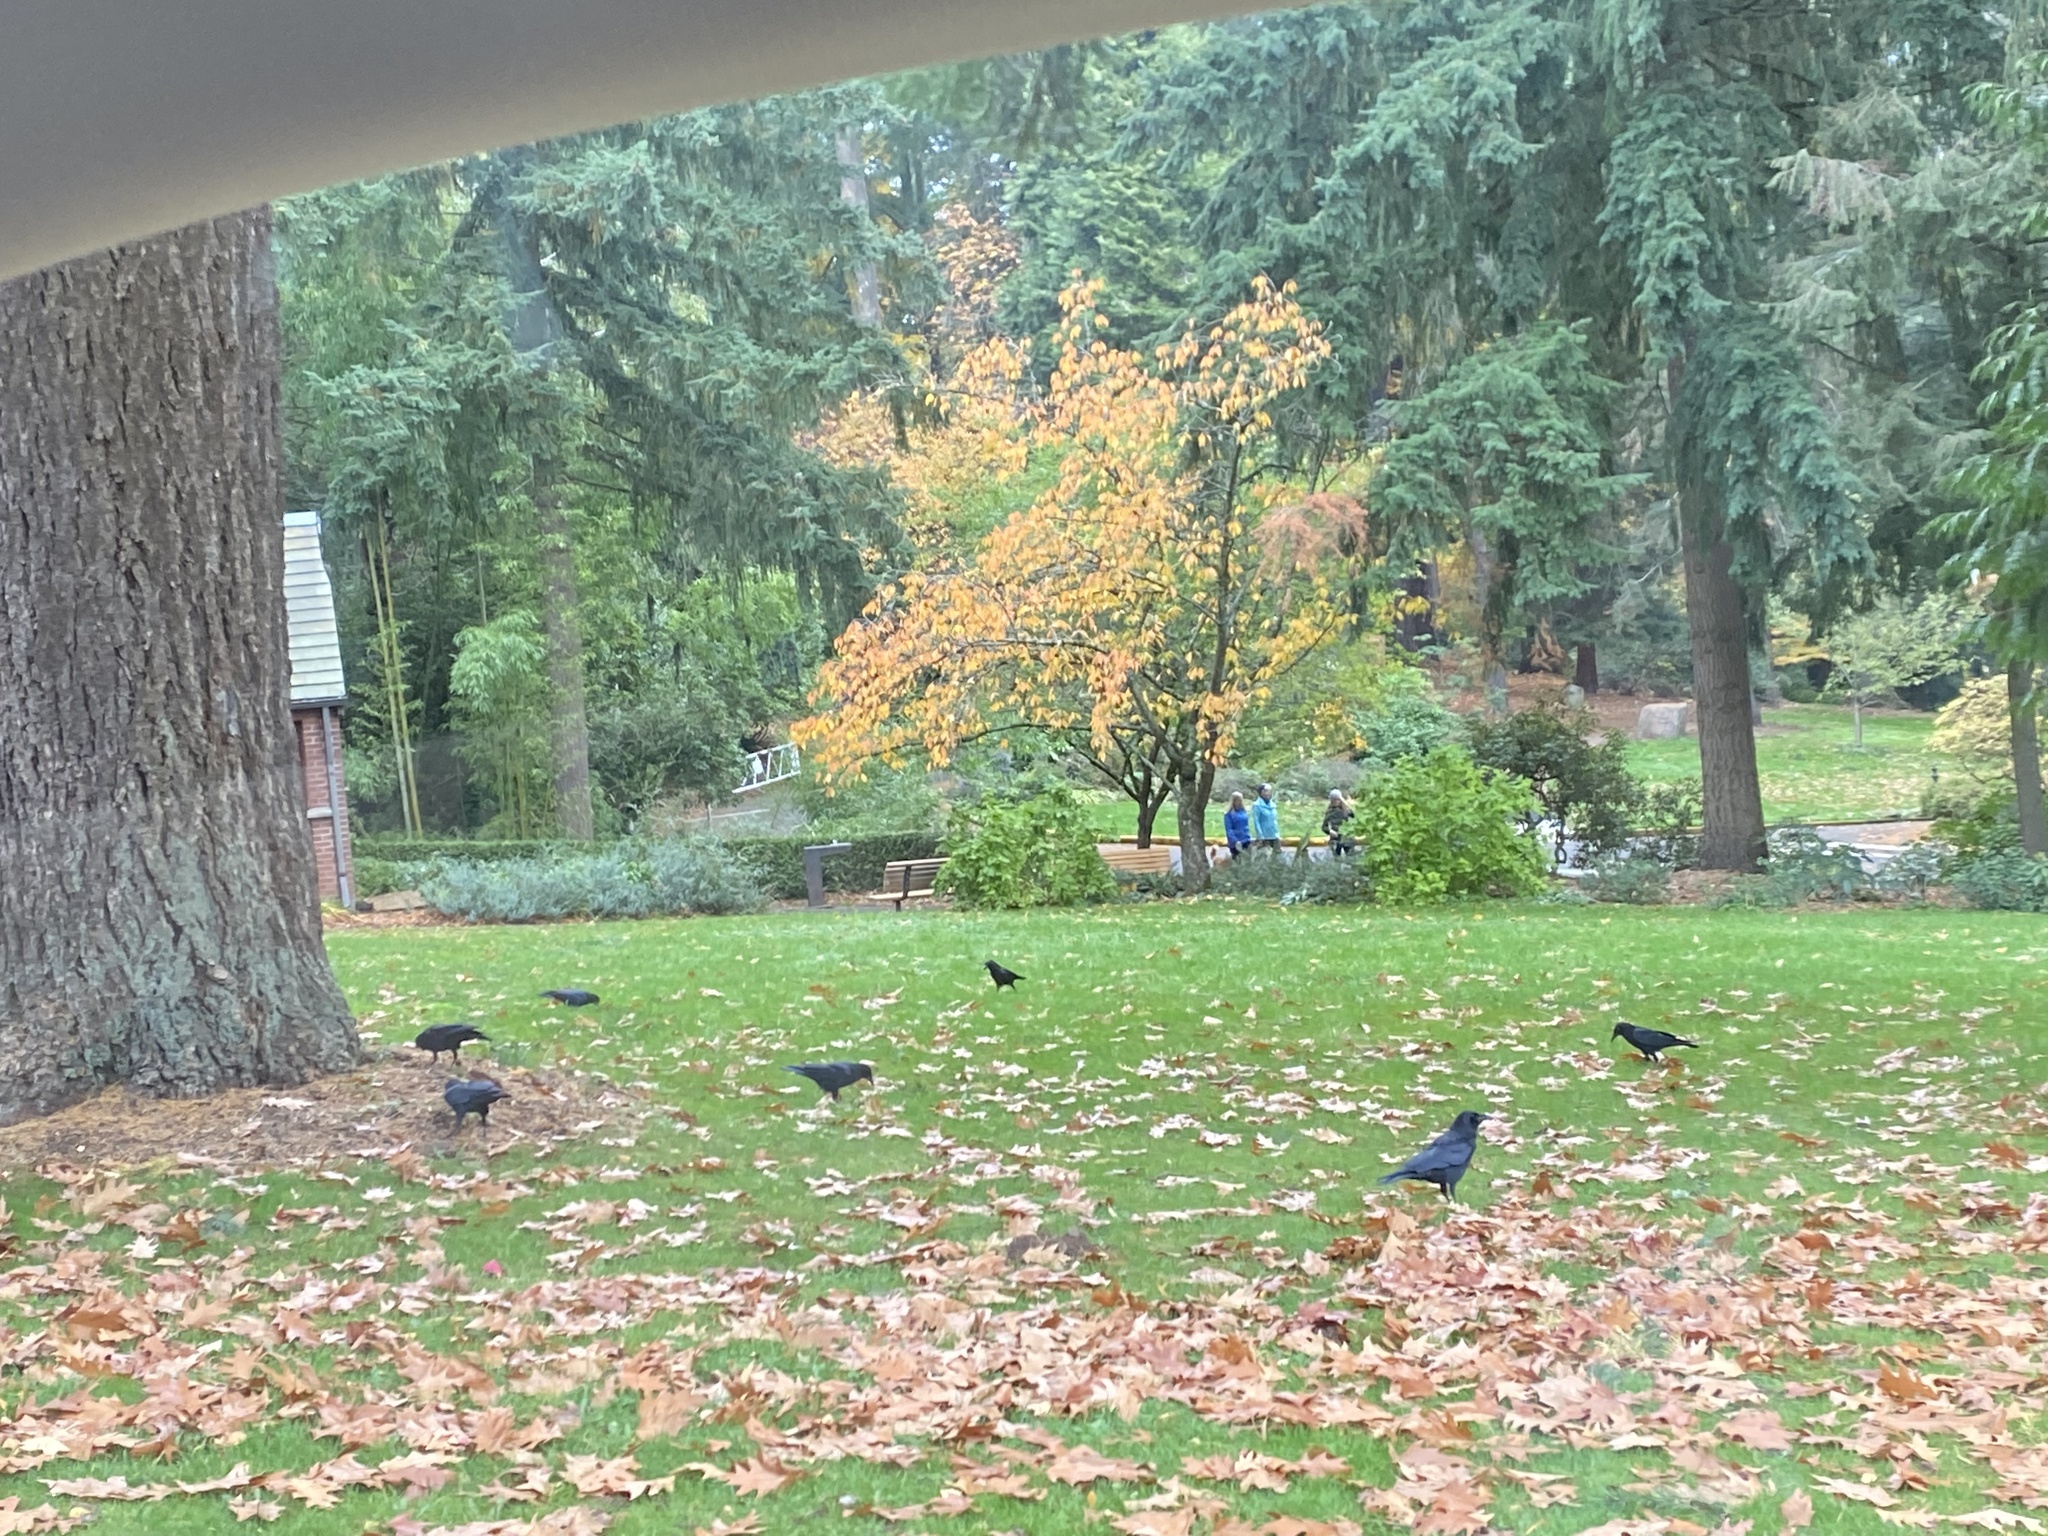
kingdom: Animalia
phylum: Chordata
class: Aves
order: Passeriformes
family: Corvidae
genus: Corvus
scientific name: Corvus brachyrhynchos
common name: American crow
